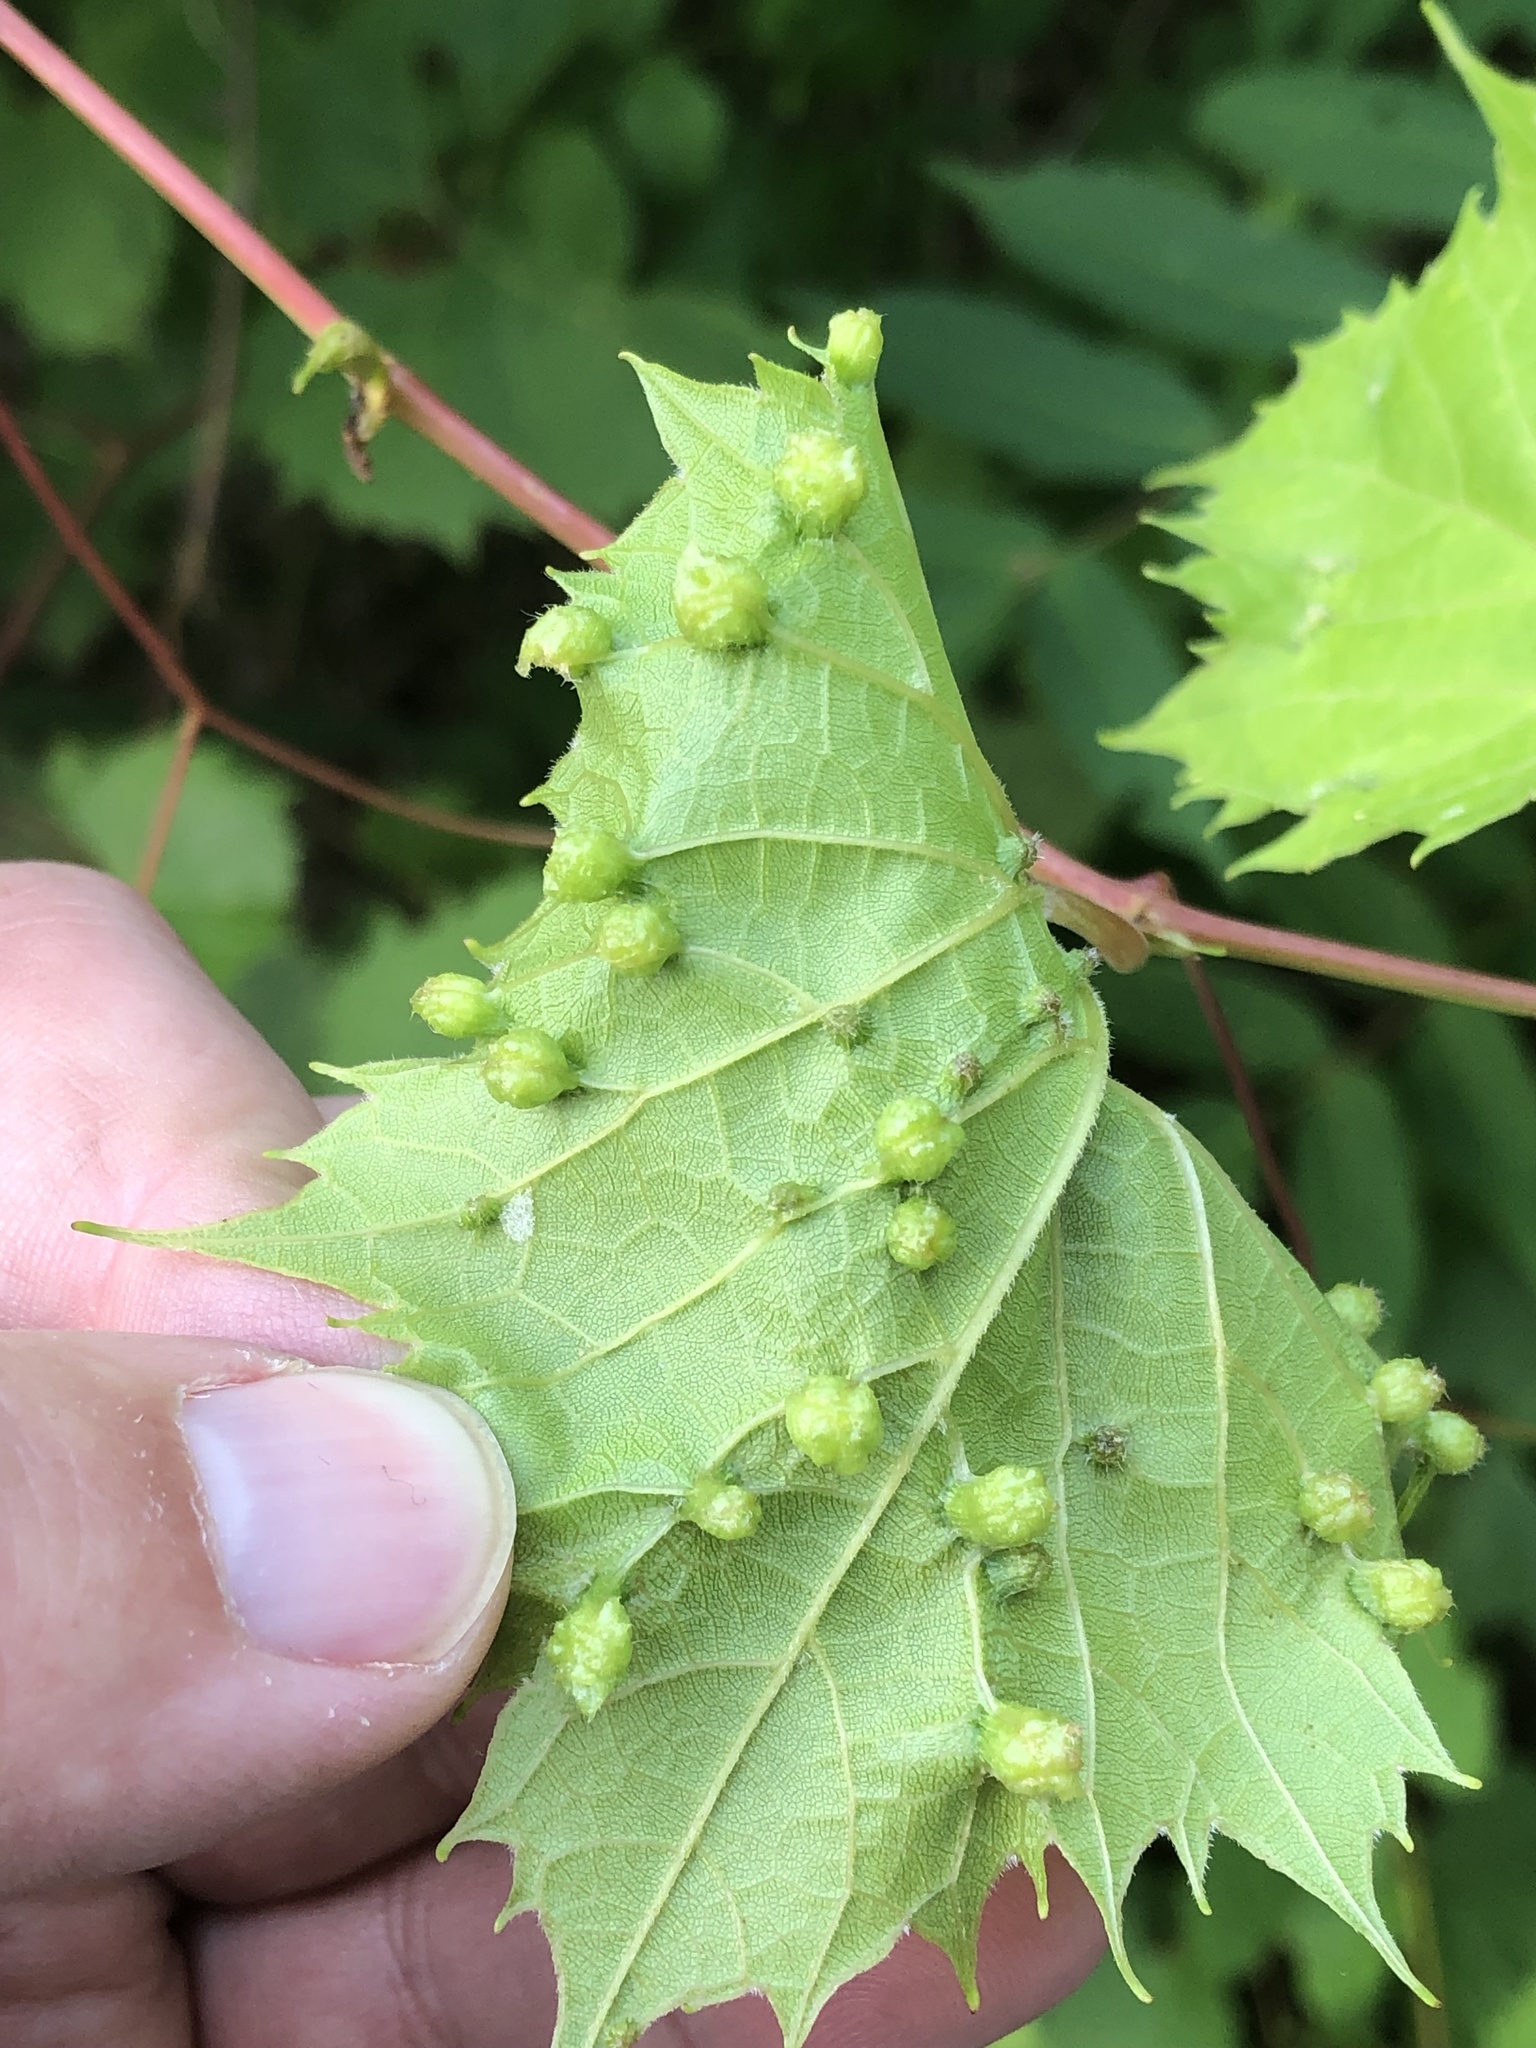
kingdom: Animalia
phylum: Arthropoda
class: Insecta
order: Hemiptera
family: Phylloxeridae
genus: Daktulosphaira
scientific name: Daktulosphaira vitifoliae
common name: Grape phylloxera
